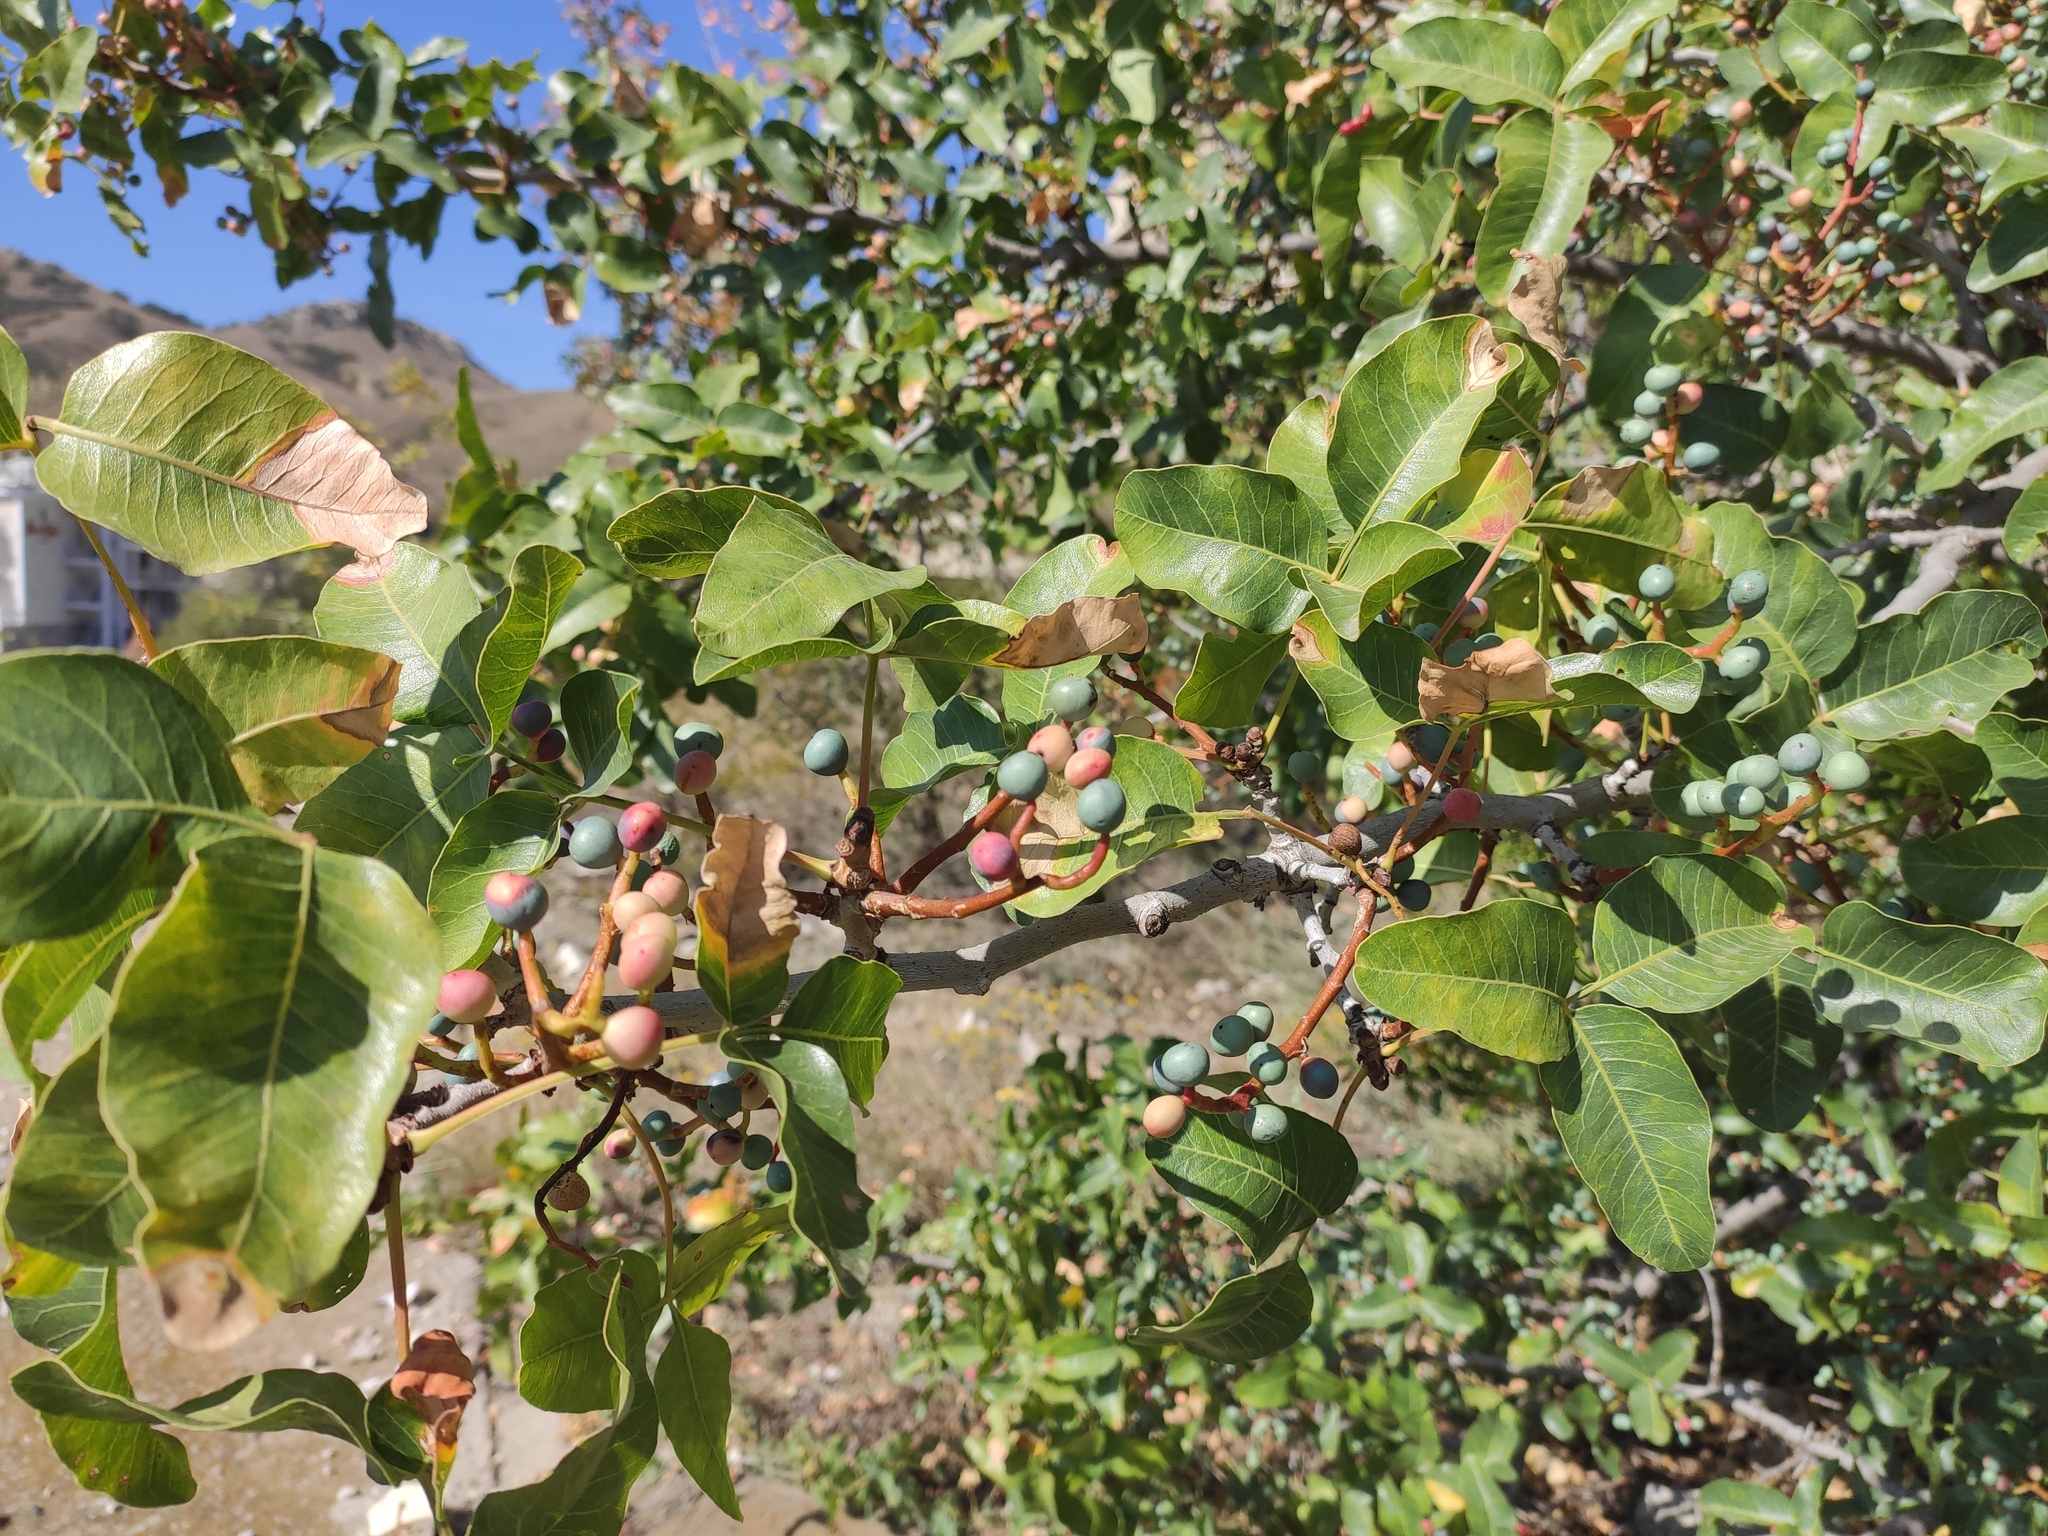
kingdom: Plantae
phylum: Tracheophyta
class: Magnoliopsida
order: Sapindales
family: Anacardiaceae
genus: Pistacia
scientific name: Pistacia atlantica
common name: Mt. atlas mastic tree
